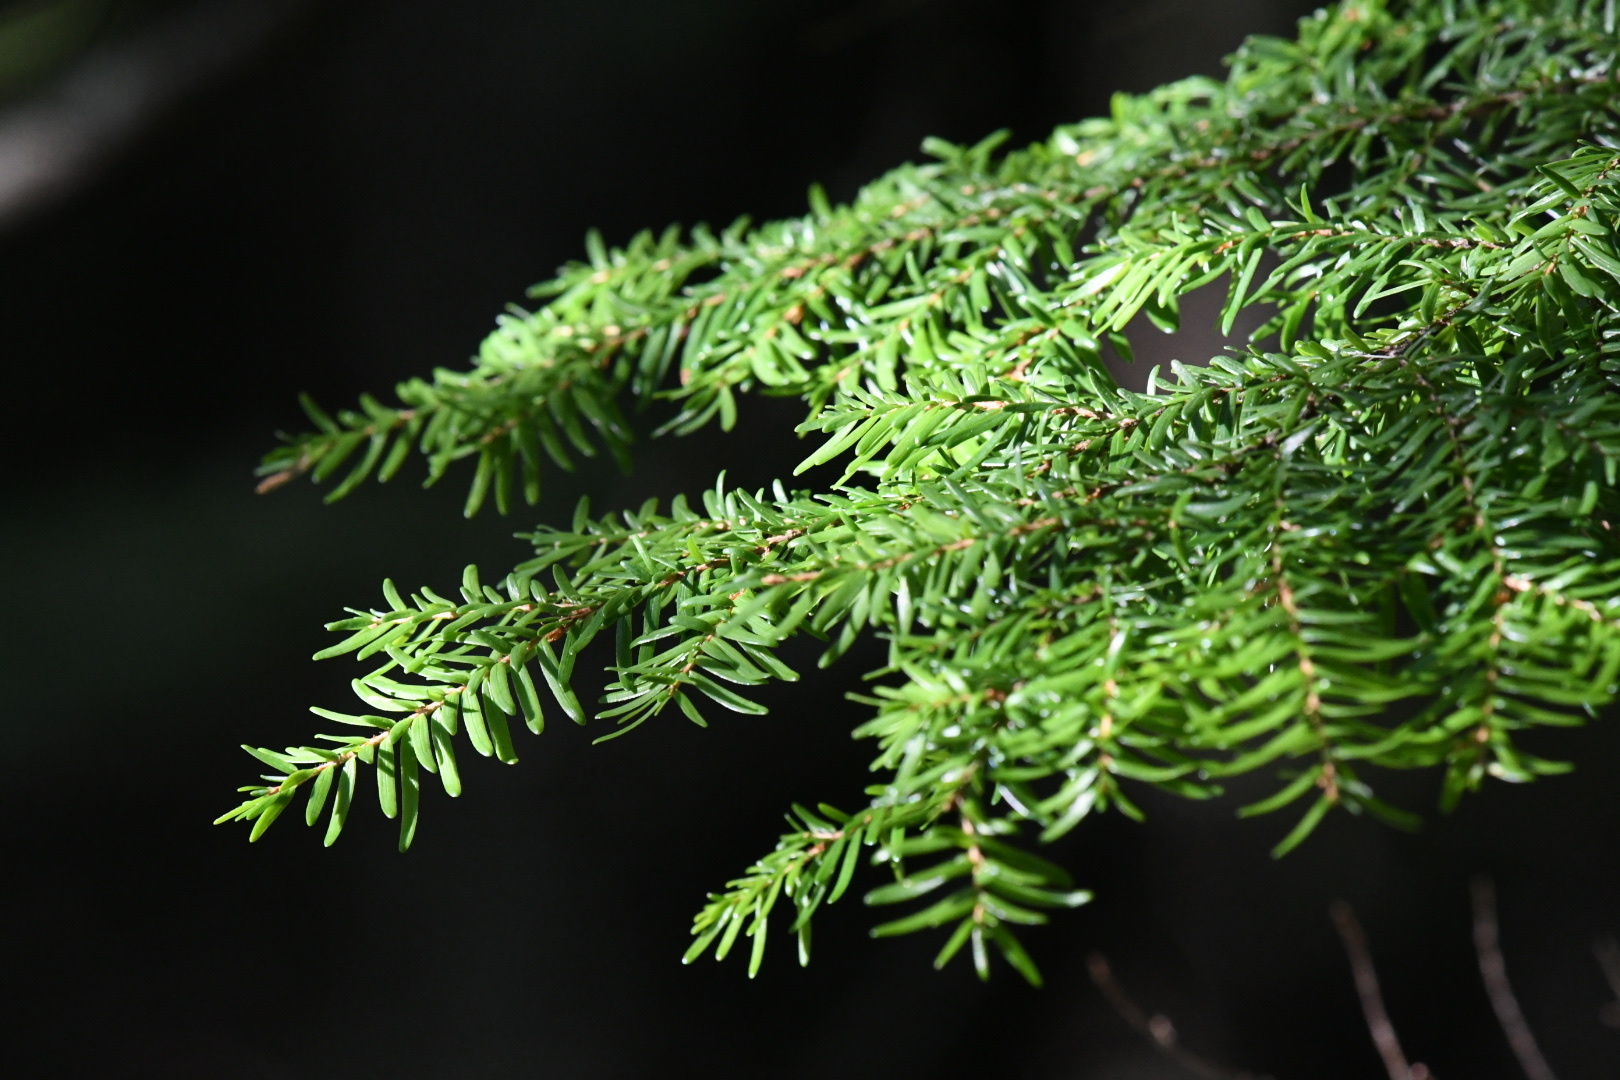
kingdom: Plantae
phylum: Tracheophyta
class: Pinopsida
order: Pinales
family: Pinaceae
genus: Tsuga
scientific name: Tsuga heterophylla
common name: Western hemlock
